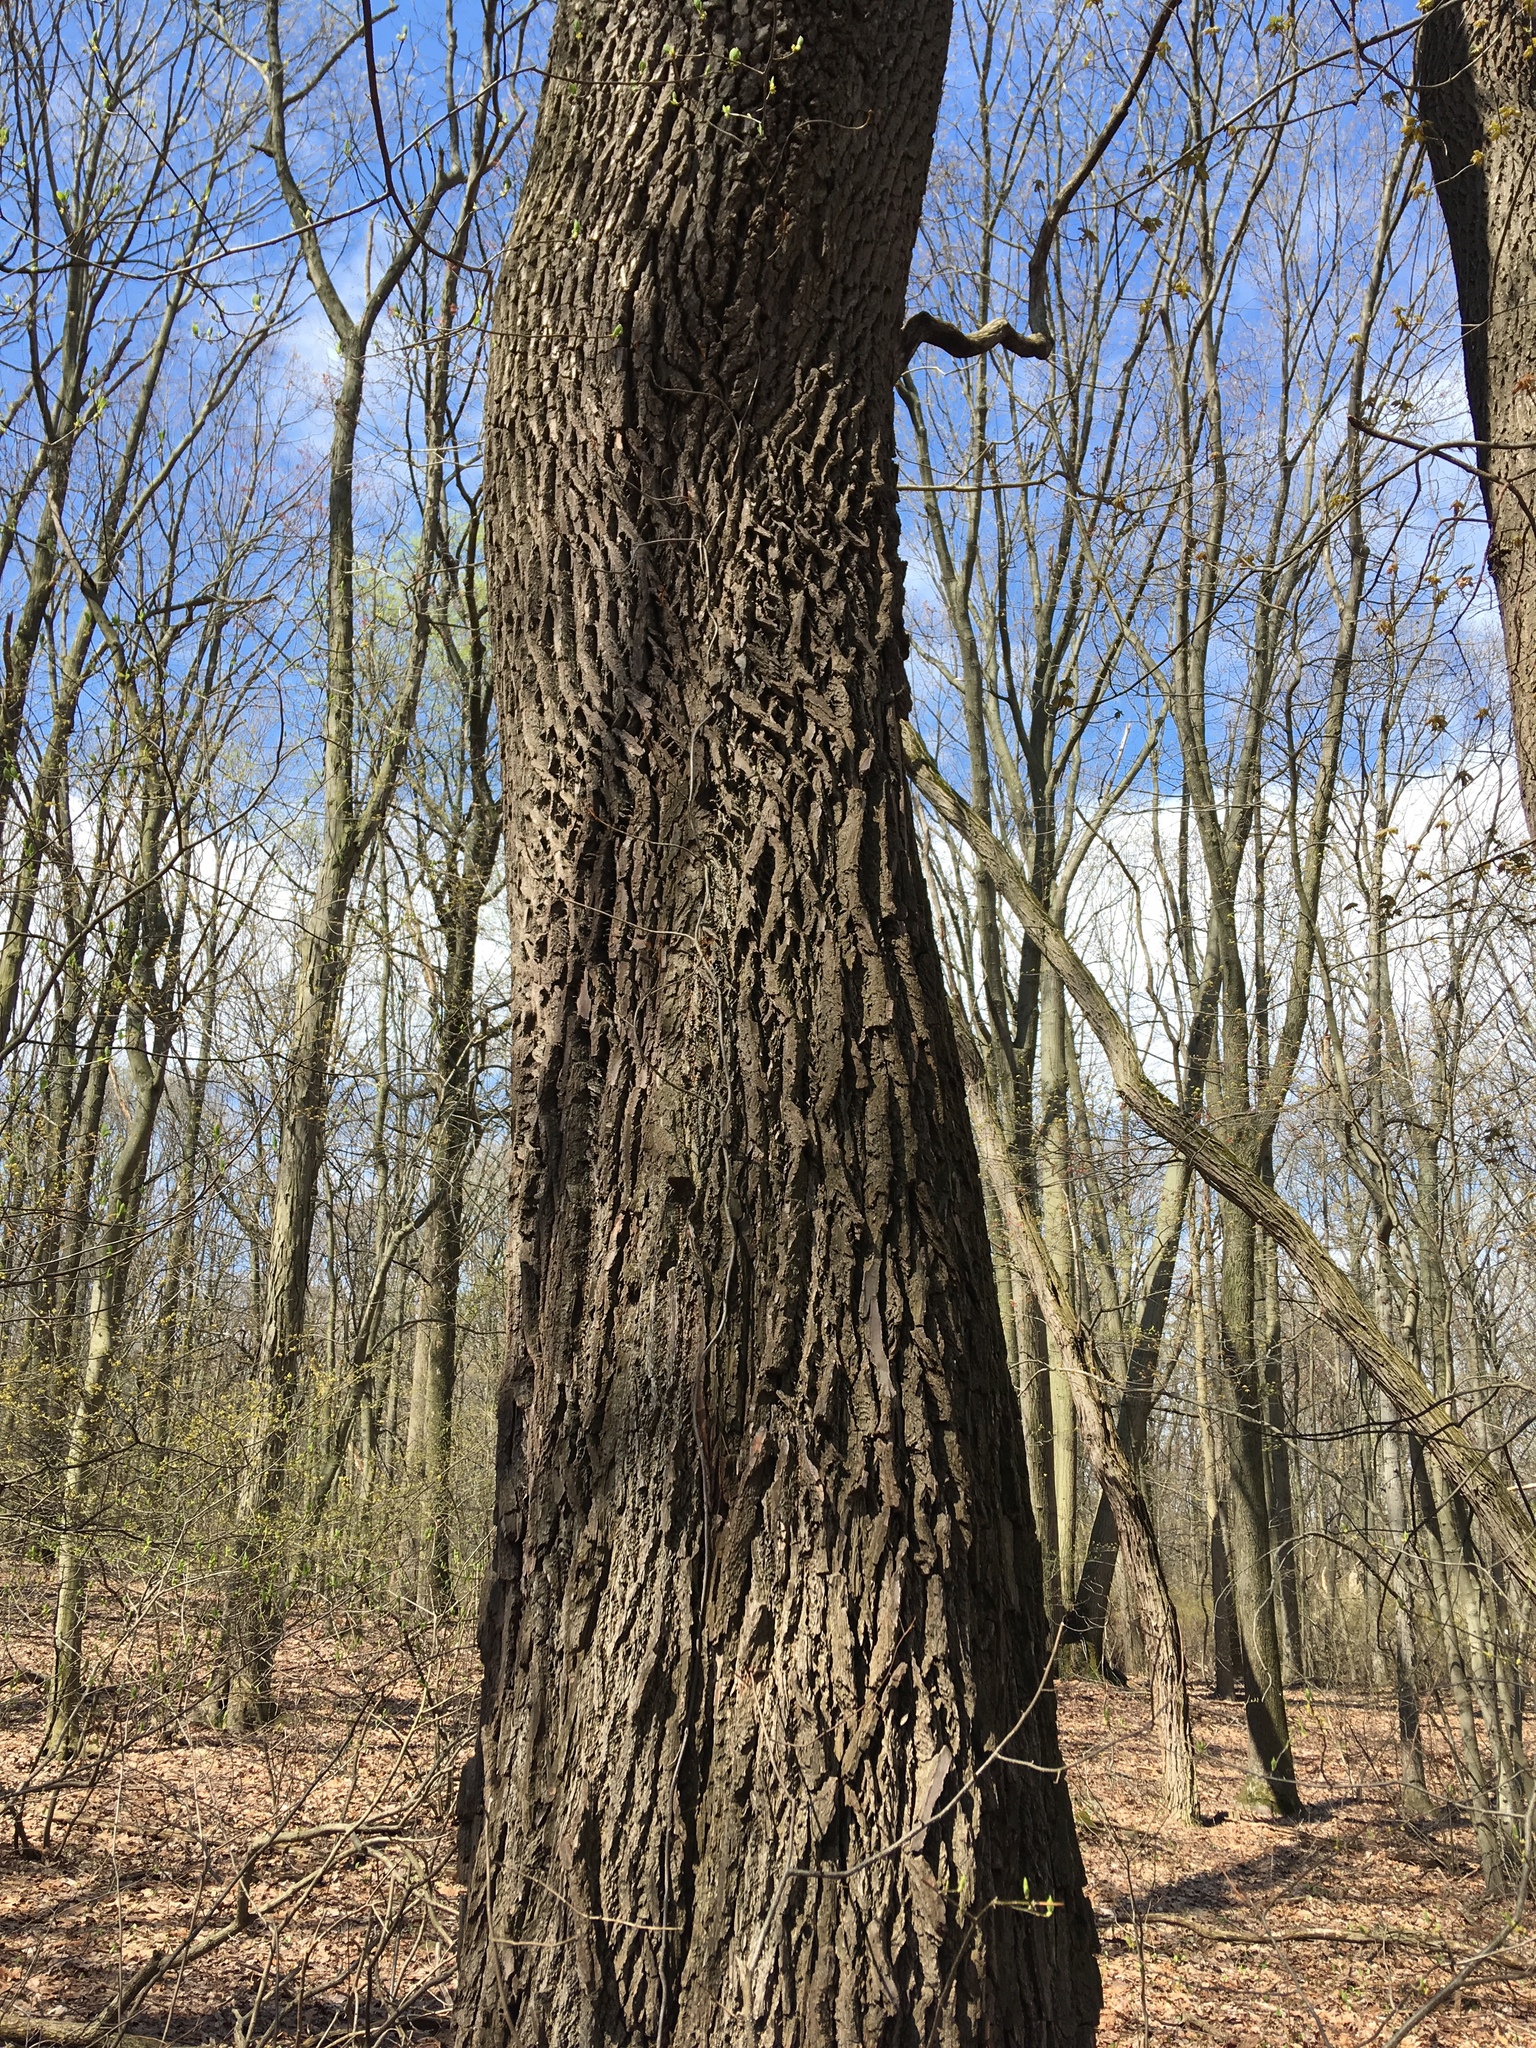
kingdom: Plantae
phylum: Tracheophyta
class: Magnoliopsida
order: Laurales
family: Lauraceae
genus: Sassafras
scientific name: Sassafras albidum
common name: Sassafras
